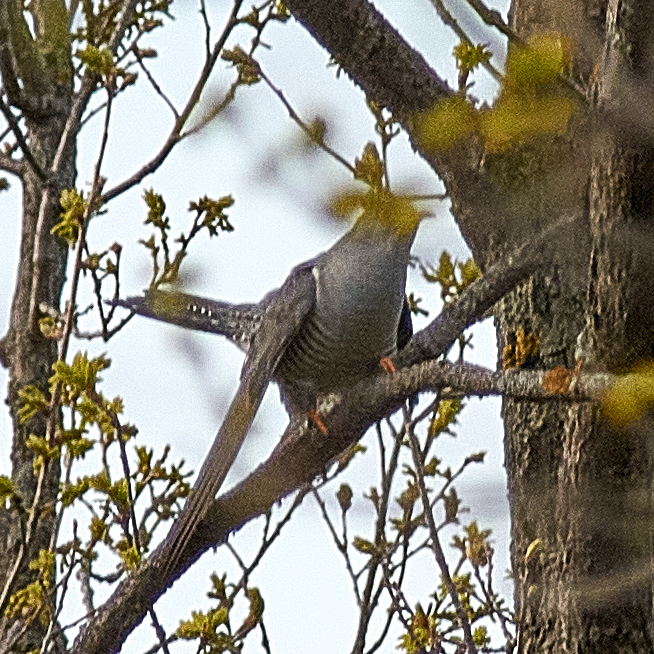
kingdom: Animalia
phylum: Chordata
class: Aves
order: Cuculiformes
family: Cuculidae
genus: Cuculus
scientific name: Cuculus canorus
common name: Common cuckoo
